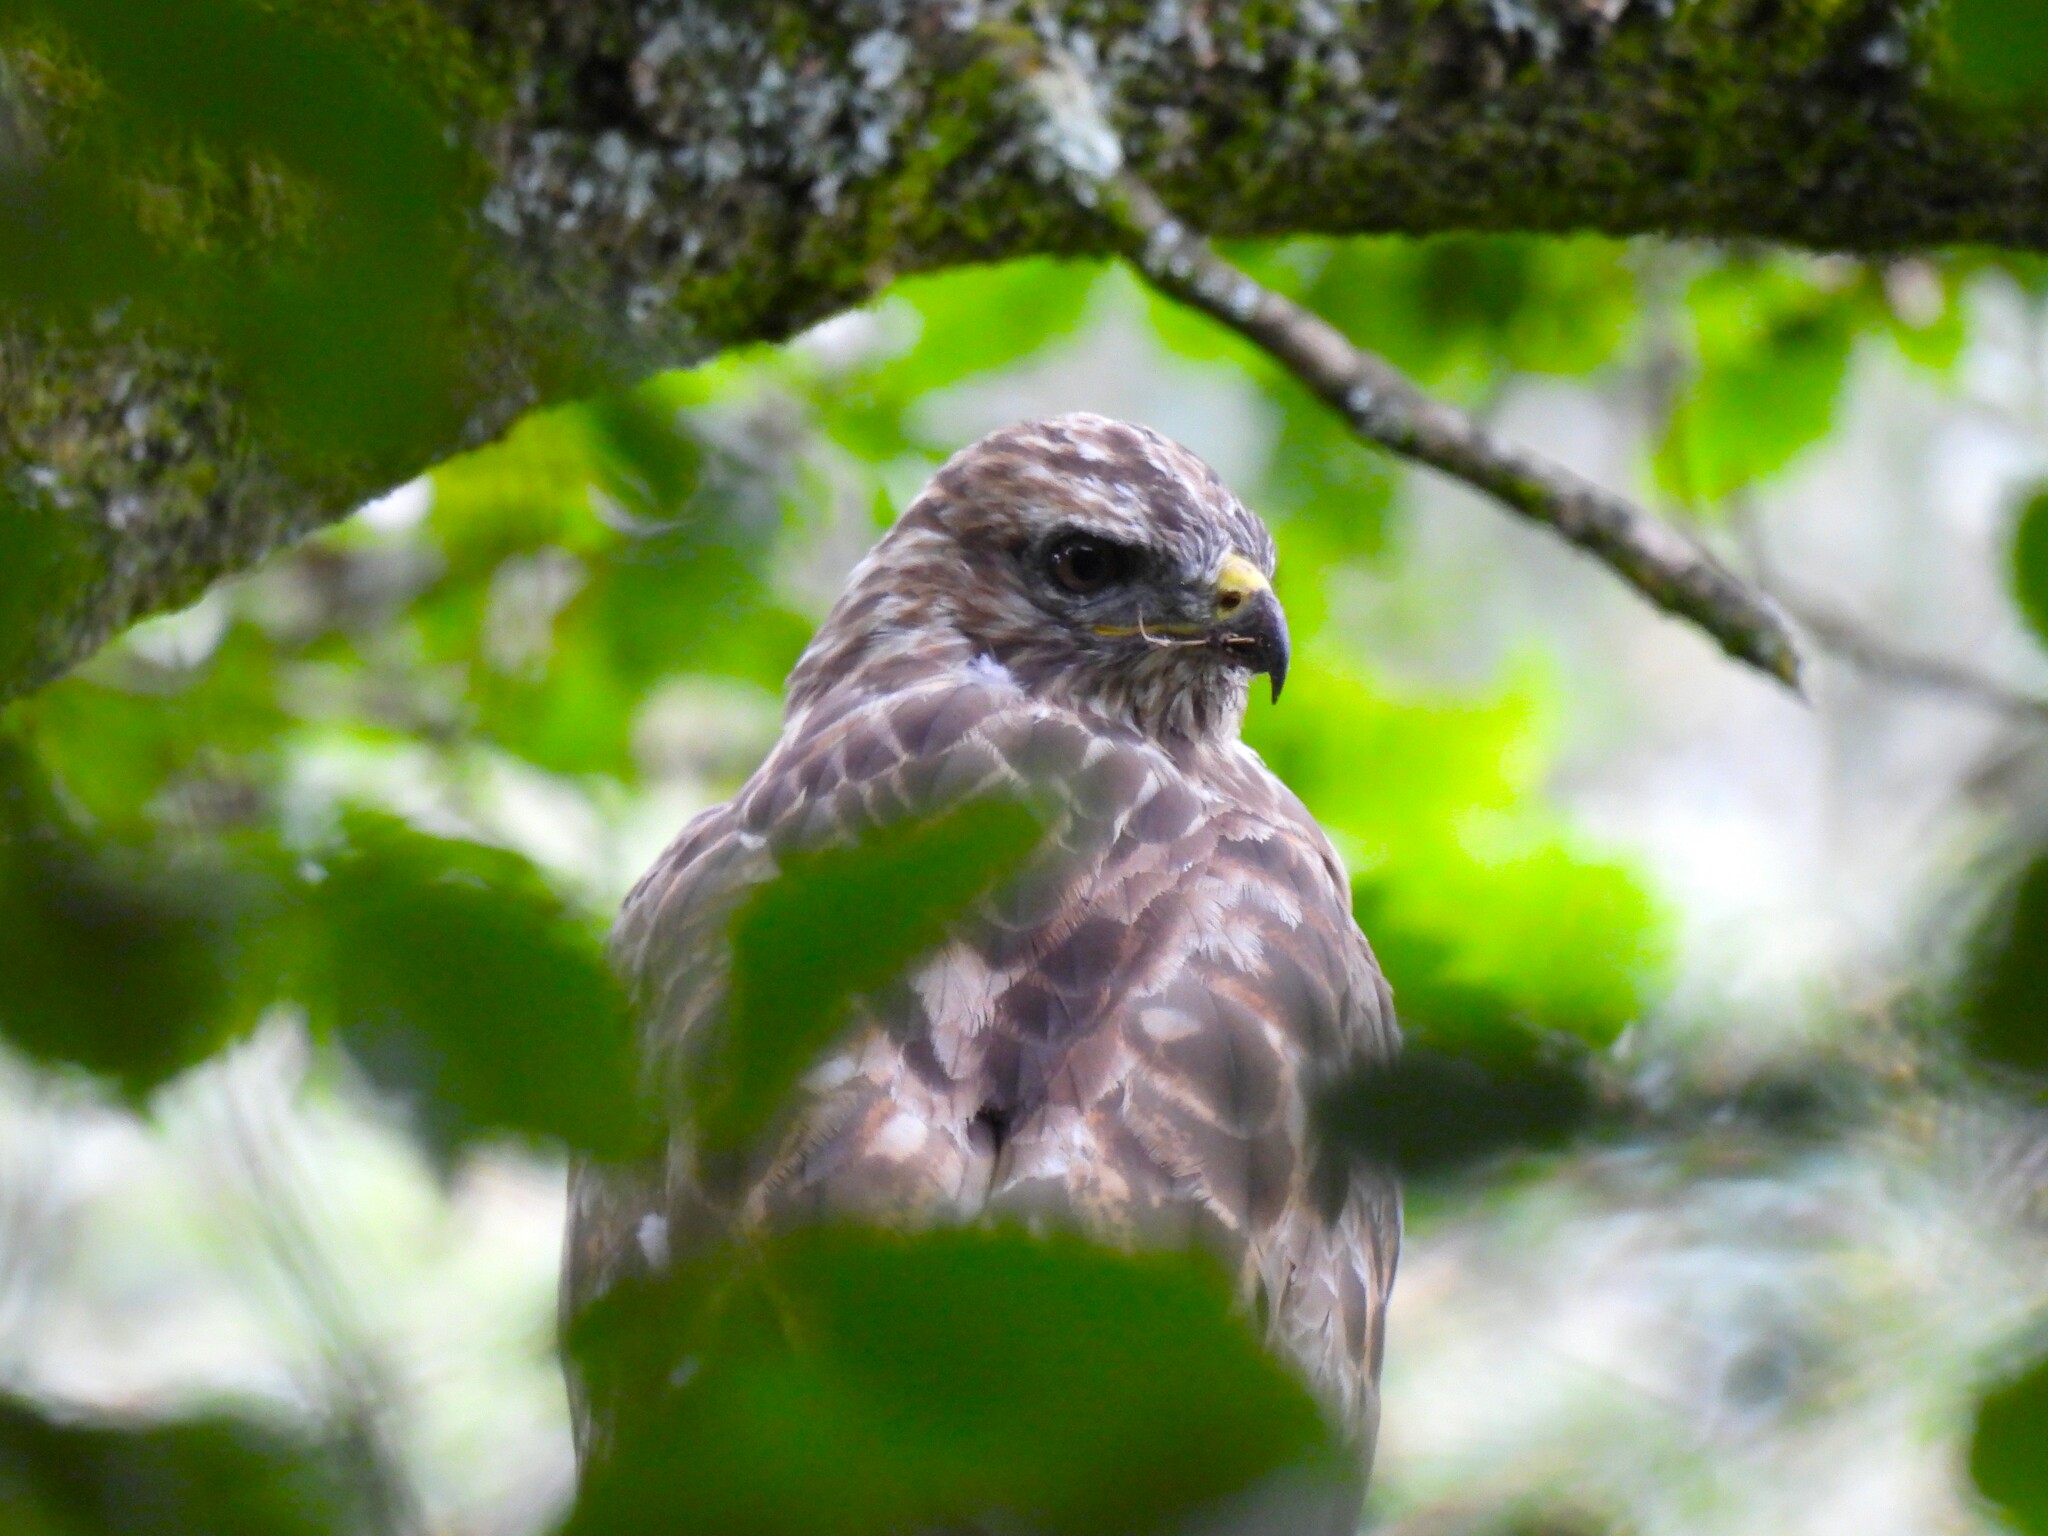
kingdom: Animalia
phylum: Chordata
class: Aves
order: Accipitriformes
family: Accipitridae
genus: Buteo
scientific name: Buteo buteo
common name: Common buzzard
